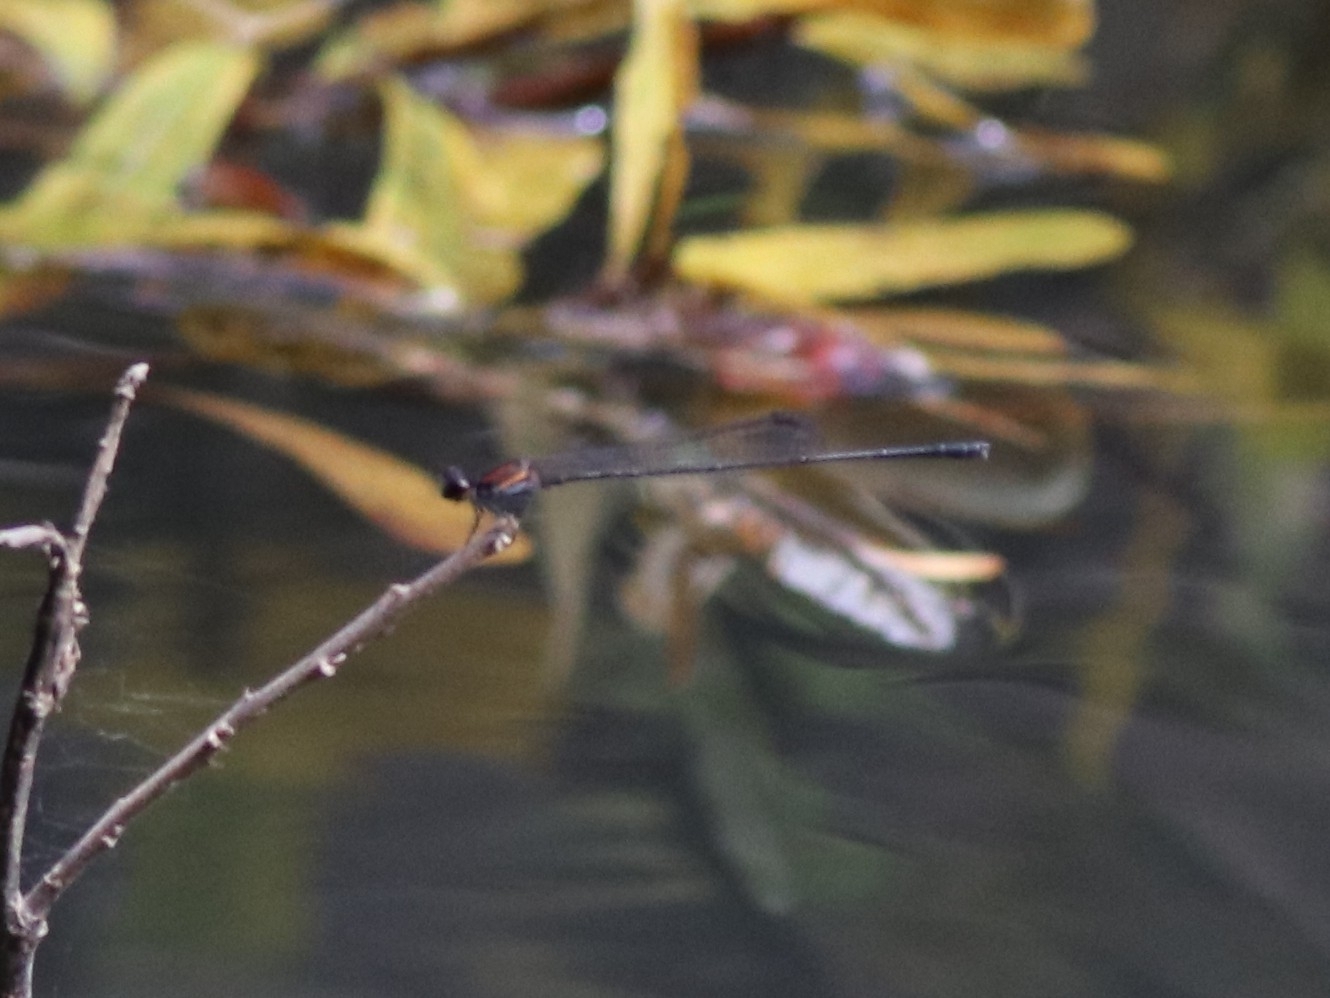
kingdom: Animalia
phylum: Arthropoda
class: Insecta
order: Odonata
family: Platycnemididae
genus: Prodasineura
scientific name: Prodasineura verticalis
